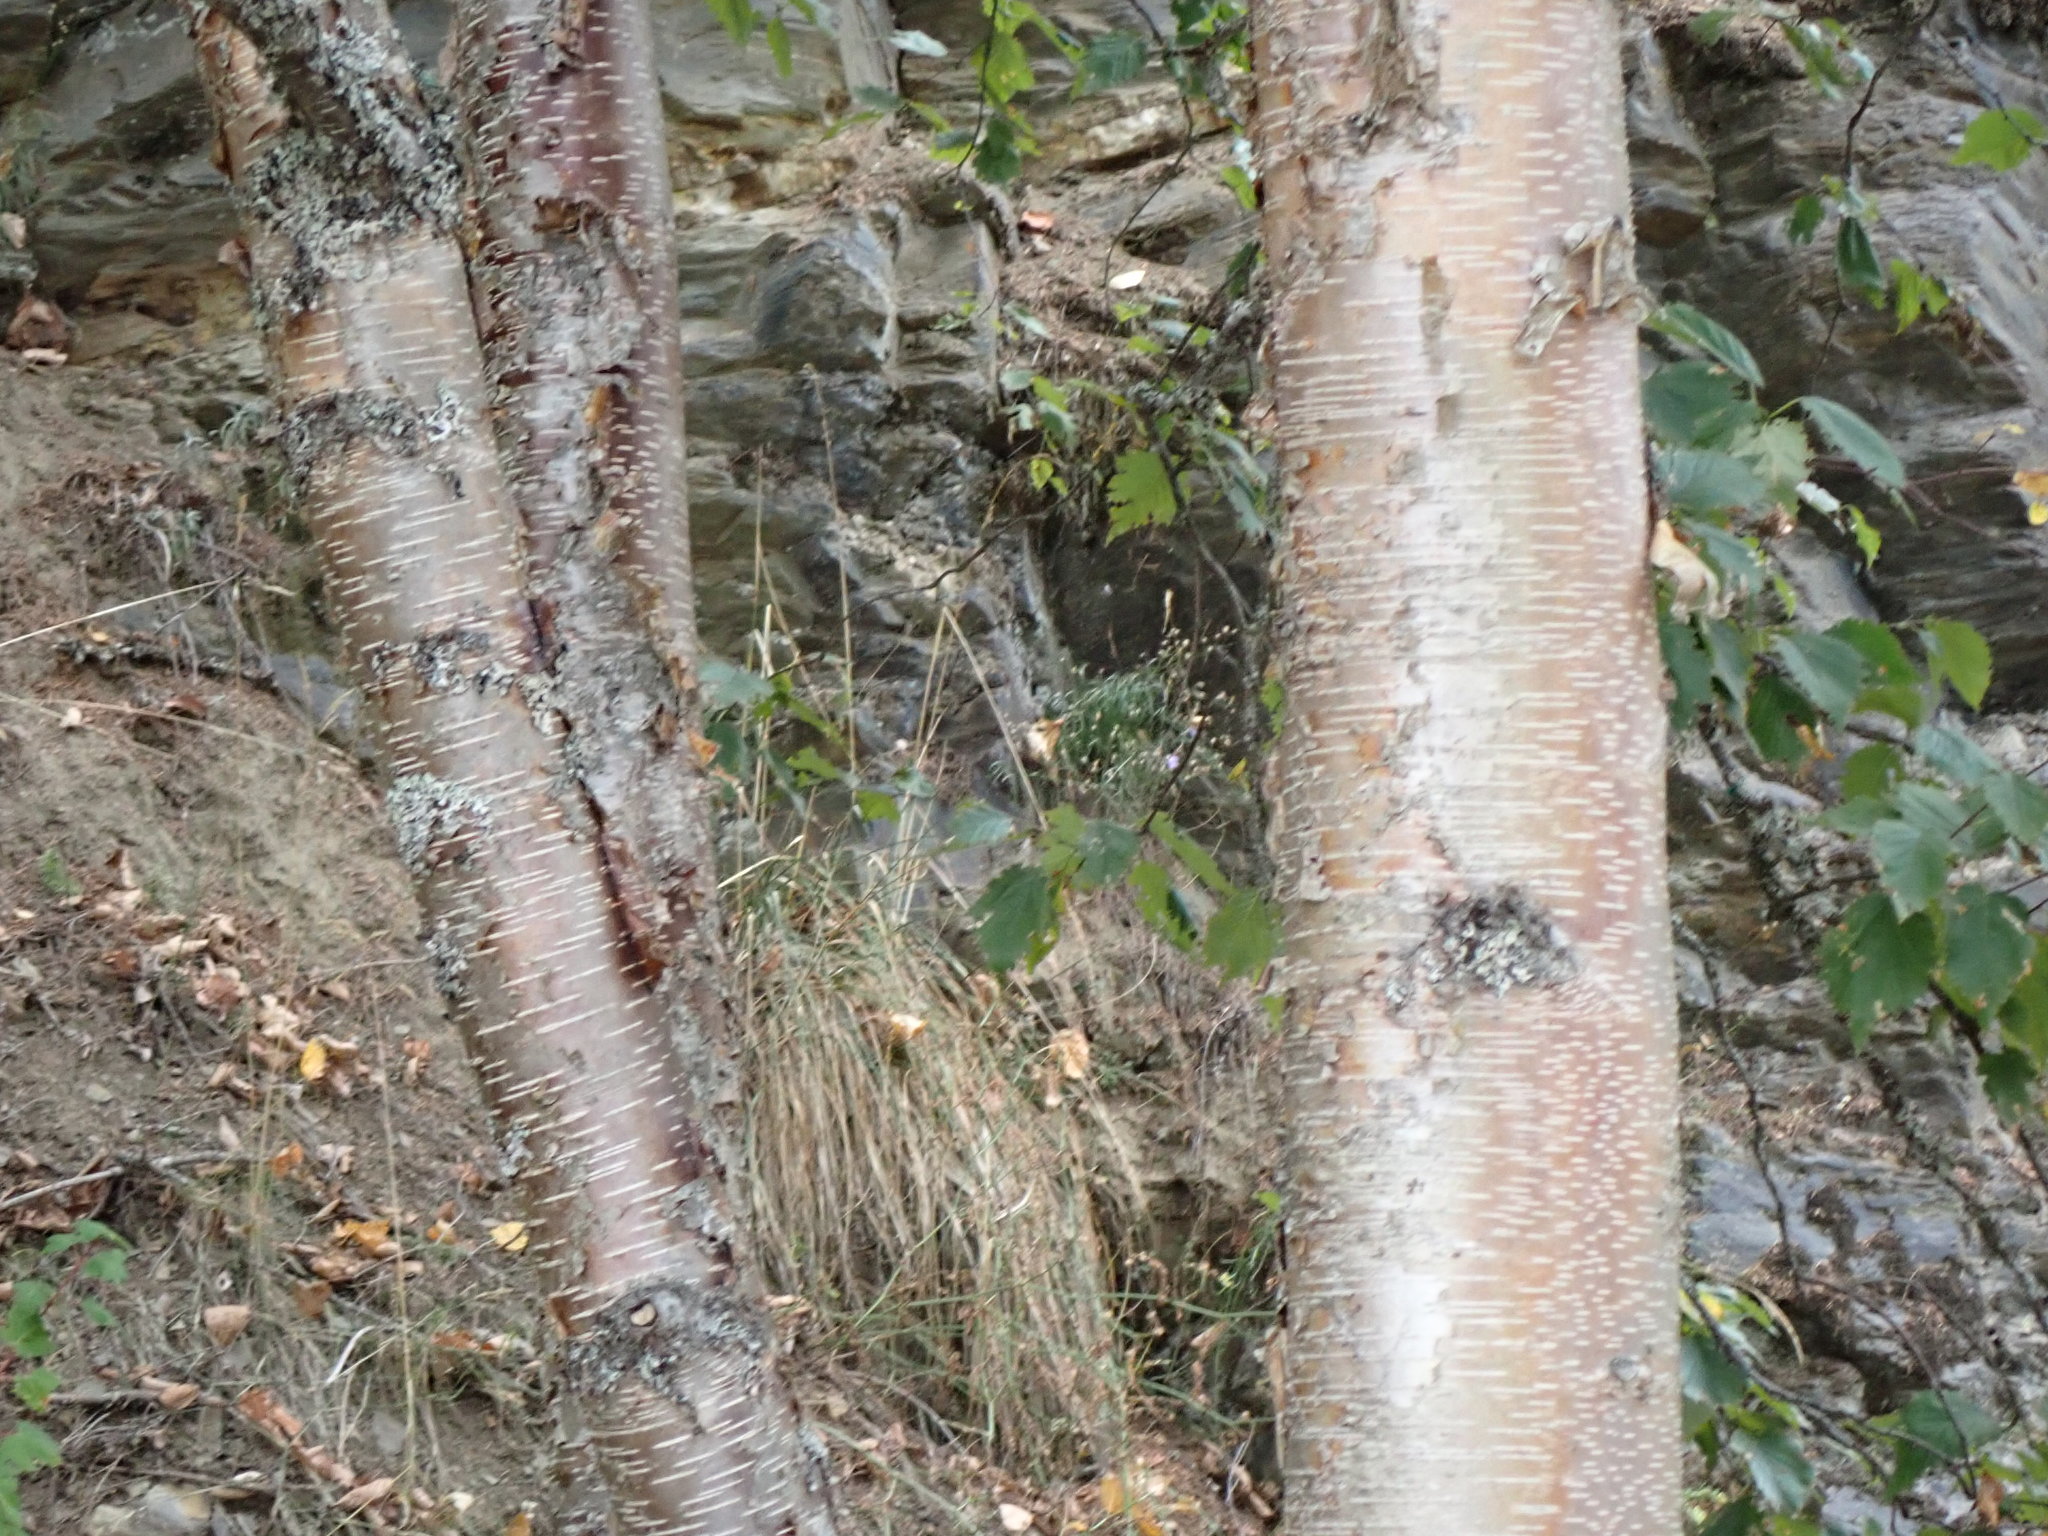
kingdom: Plantae
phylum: Tracheophyta
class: Magnoliopsida
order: Fagales
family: Betulaceae
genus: Betula
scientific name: Betula occidentalis
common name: River birch
